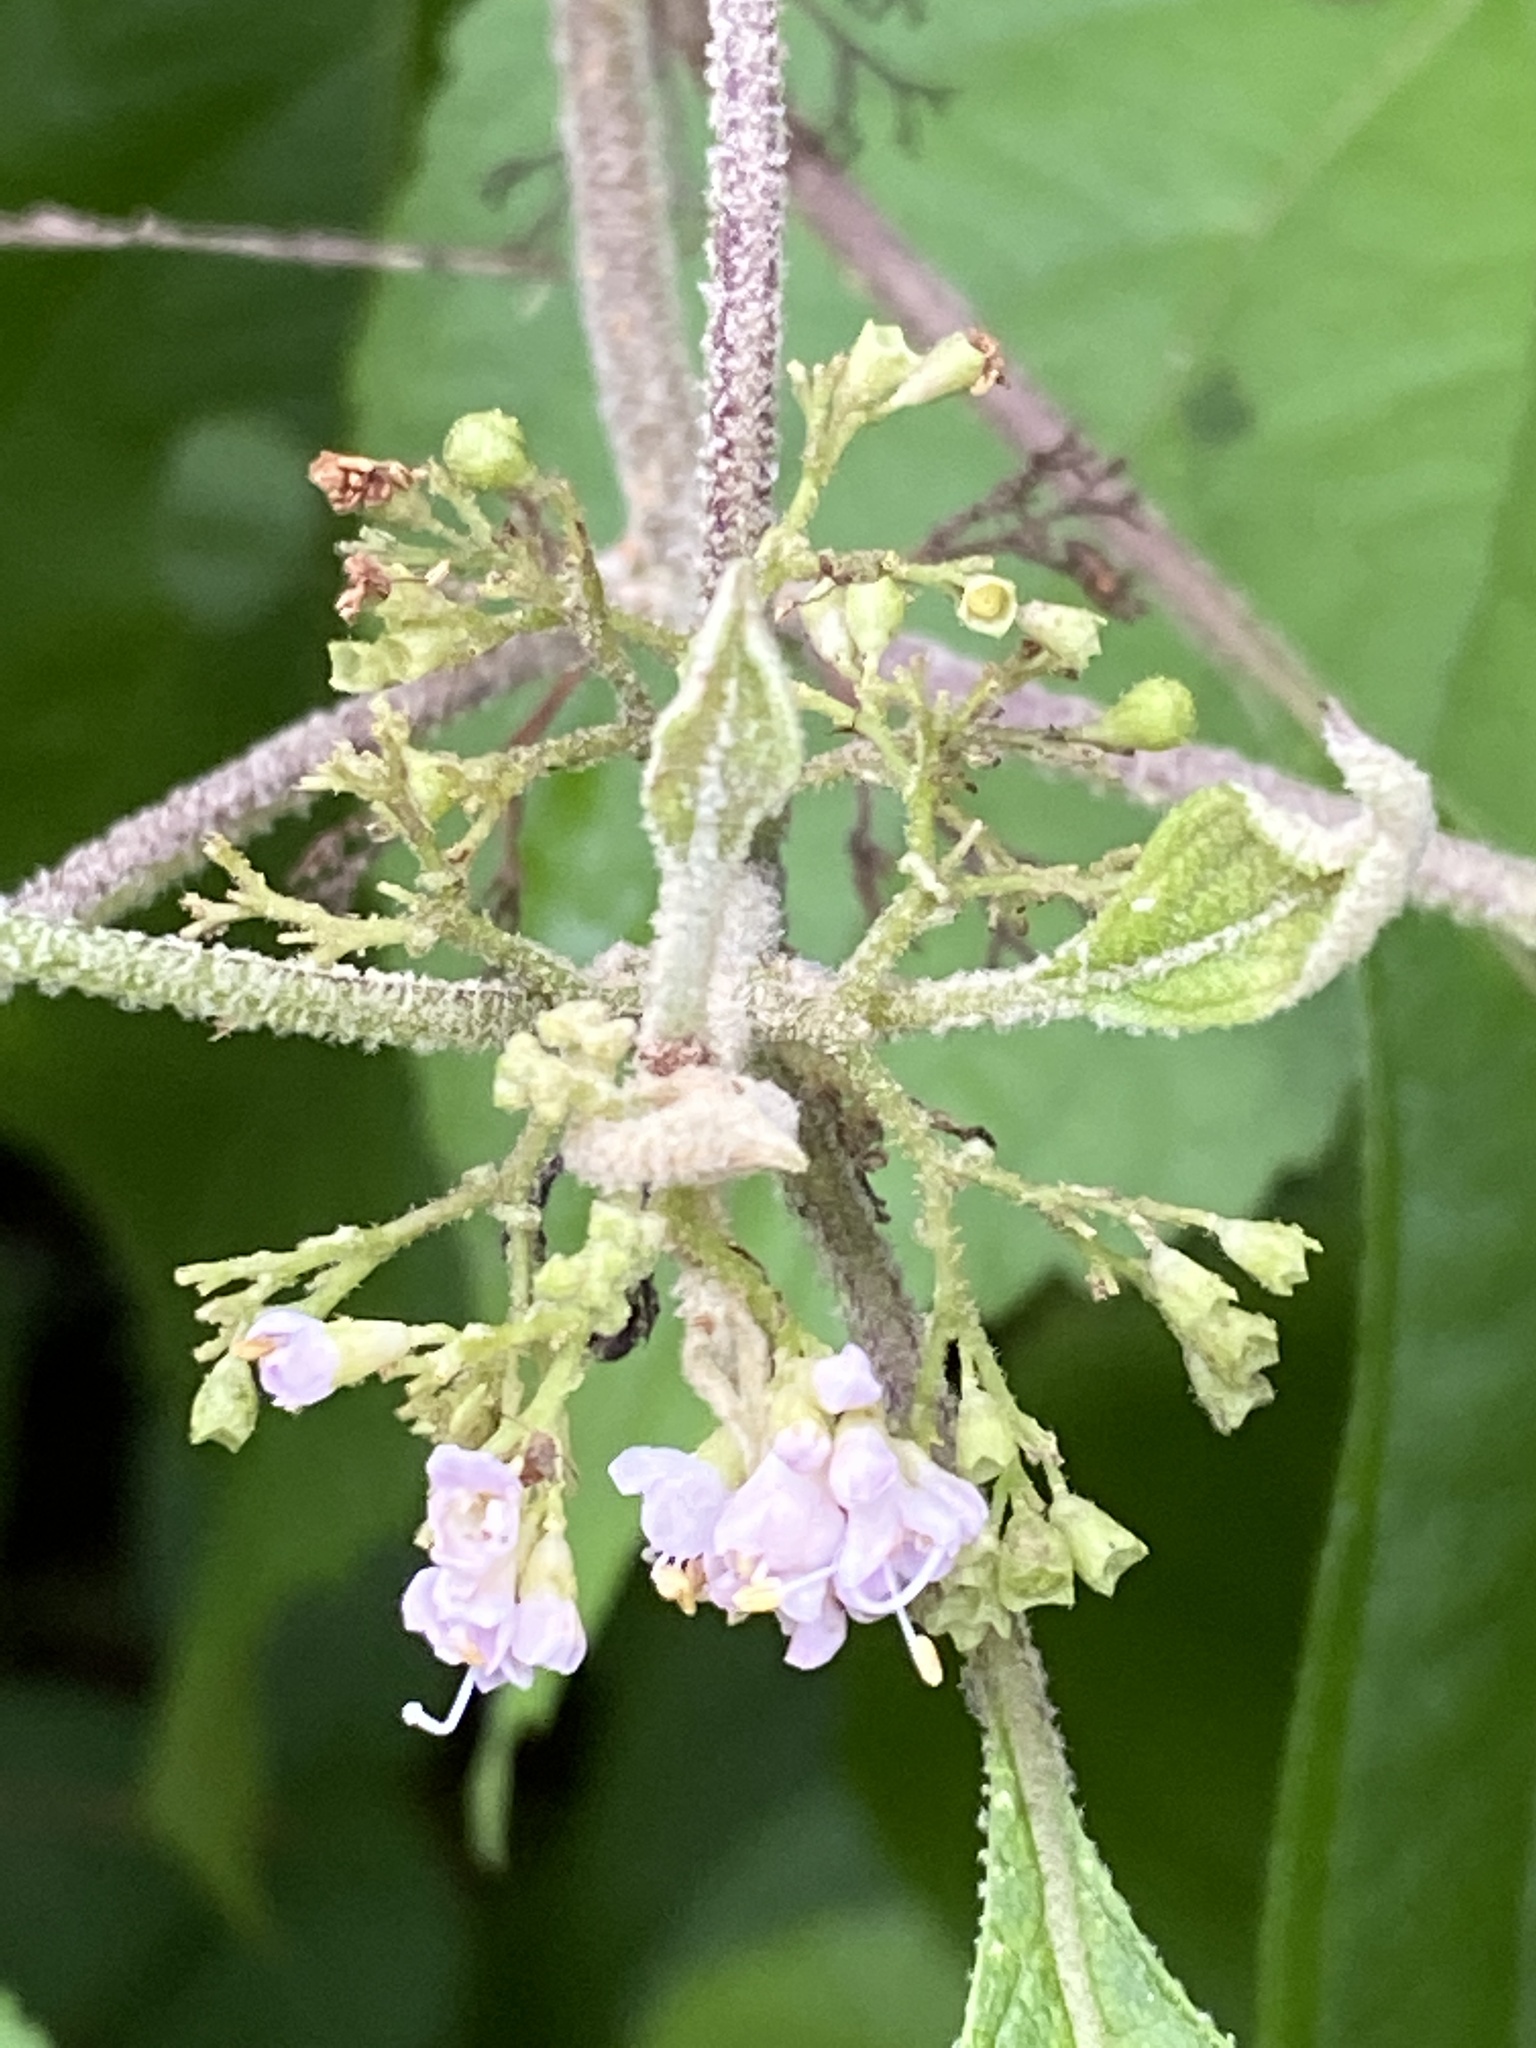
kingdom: Plantae
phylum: Tracheophyta
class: Magnoliopsida
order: Lamiales
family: Lamiaceae
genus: Callicarpa
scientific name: Callicarpa americana
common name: American beautyberry
